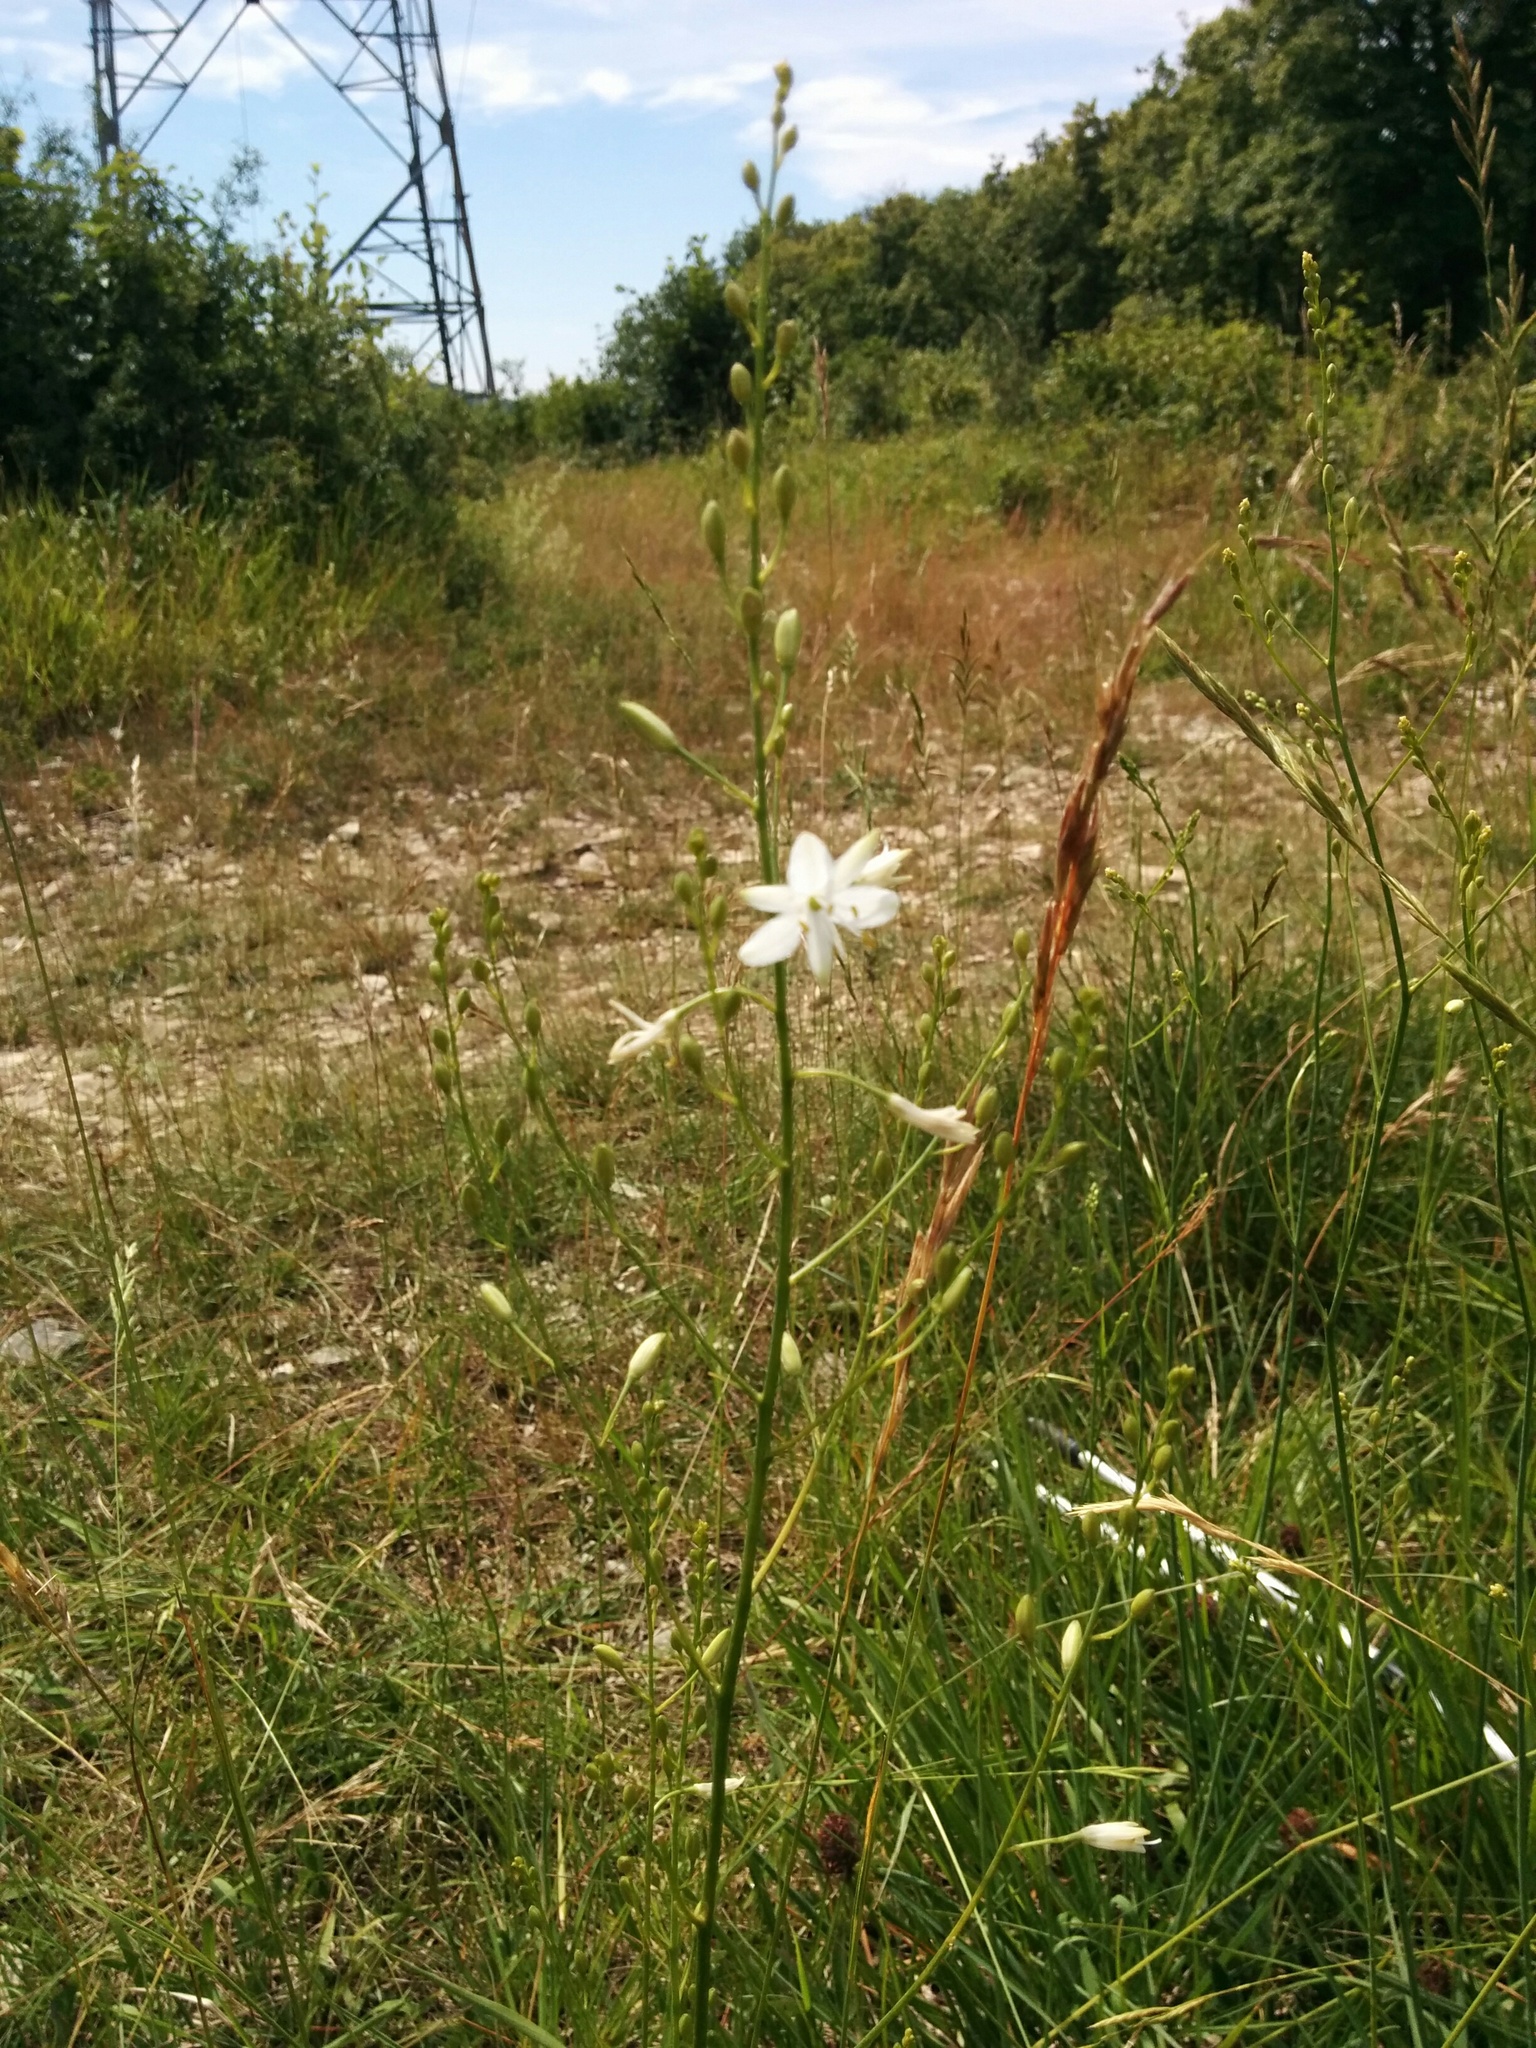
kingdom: Plantae
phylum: Tracheophyta
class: Liliopsida
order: Asparagales
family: Asparagaceae
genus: Anthericum
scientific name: Anthericum ramosum
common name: Branched st. bernard's-lily
